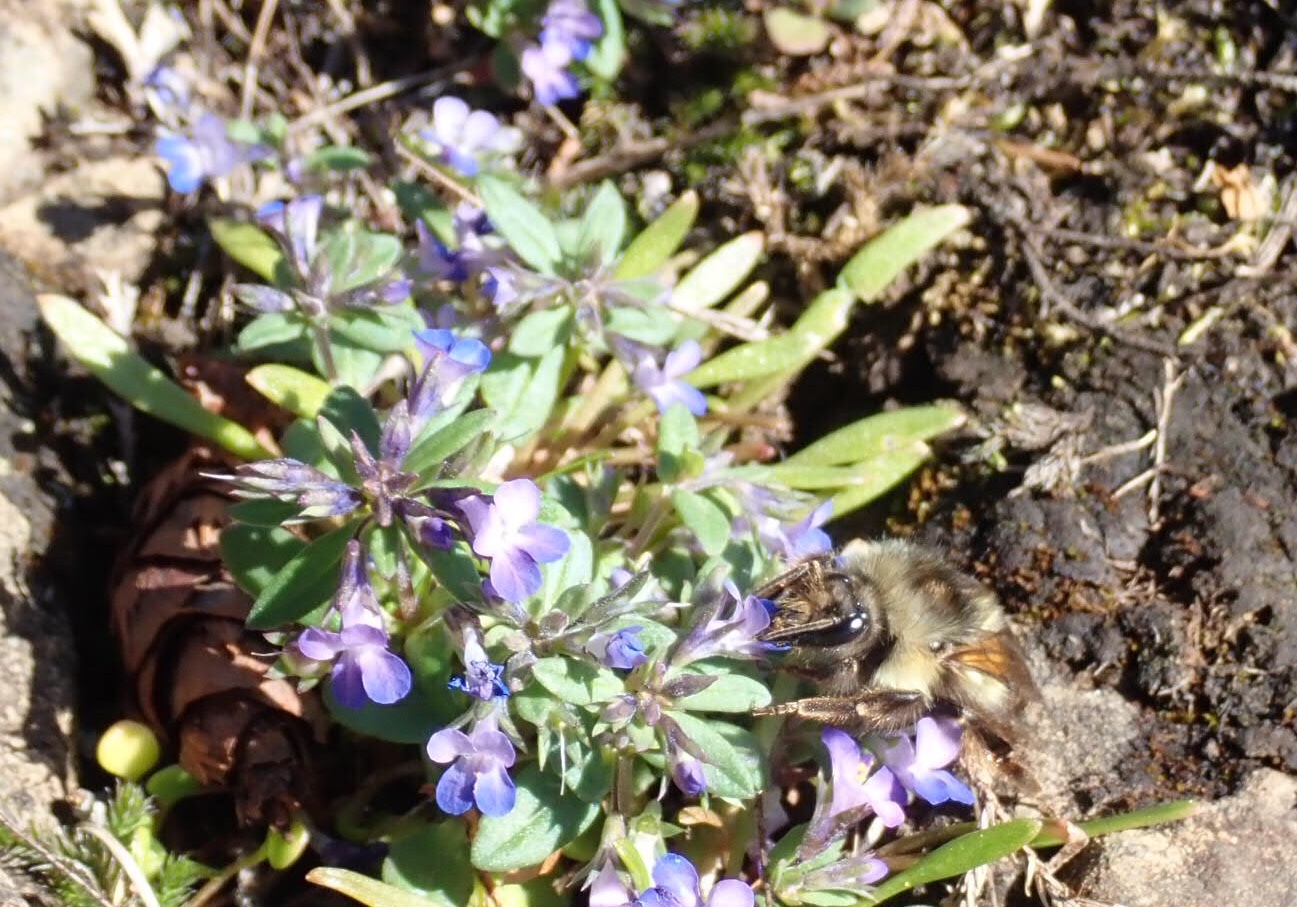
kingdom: Plantae
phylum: Tracheophyta
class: Magnoliopsida
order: Lamiales
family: Plantaginaceae
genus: Collinsia
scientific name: Collinsia parviflora
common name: Blue-lips
